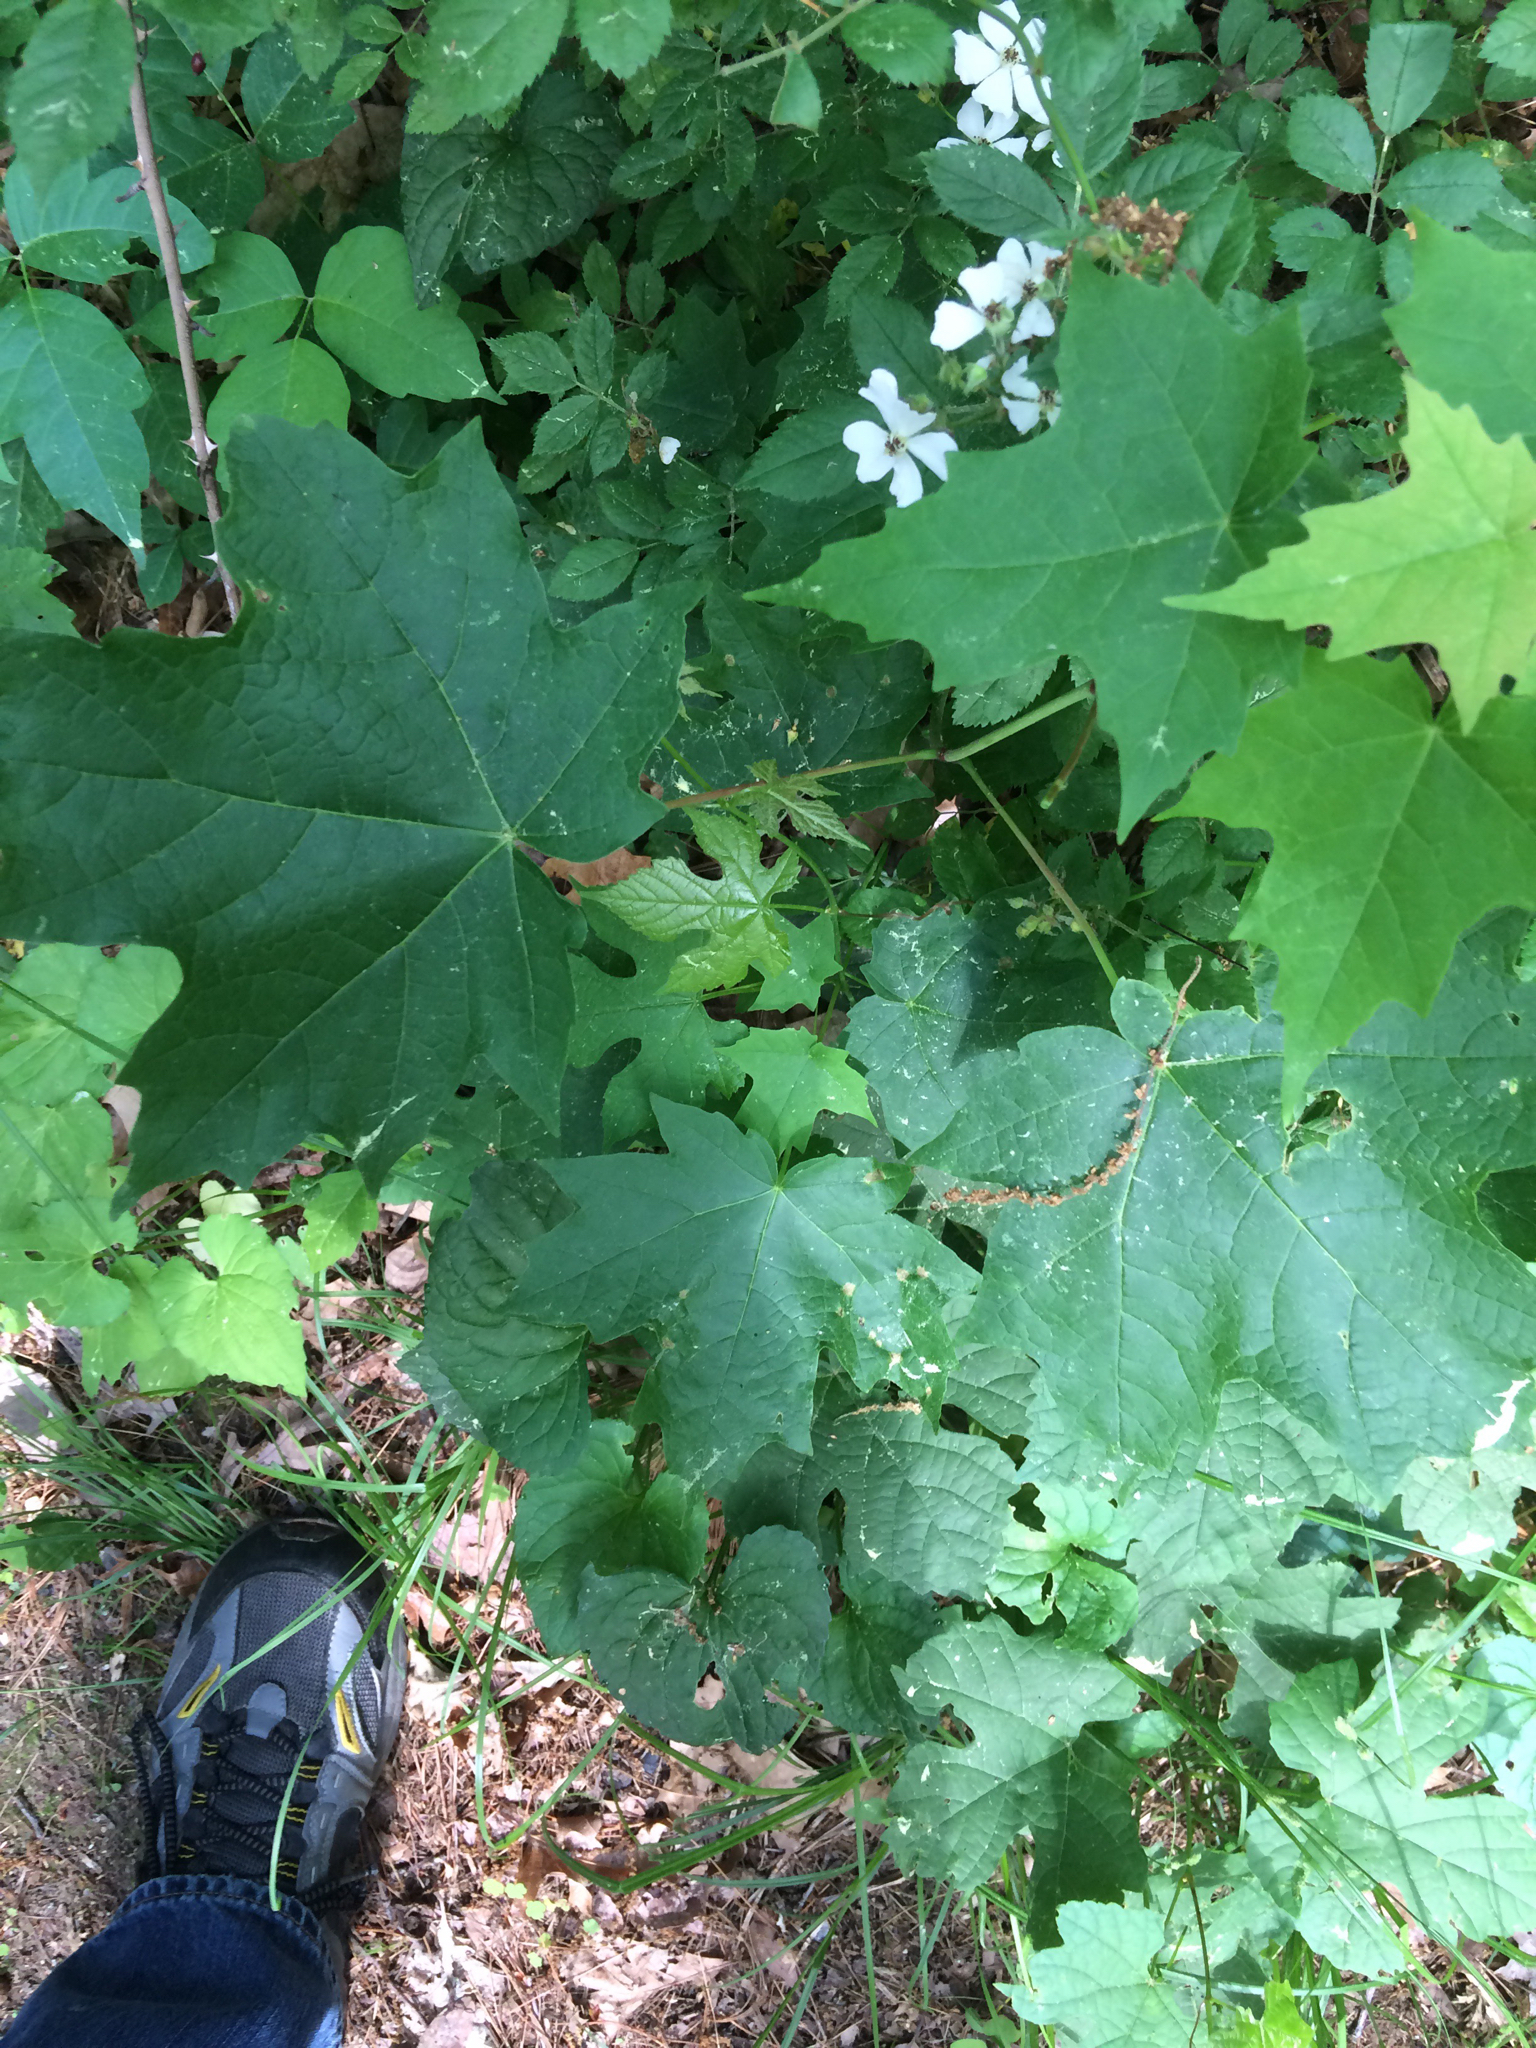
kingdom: Plantae
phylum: Tracheophyta
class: Magnoliopsida
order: Sapindales
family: Sapindaceae
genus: Acer
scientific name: Acer saccharum
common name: Sugar maple
